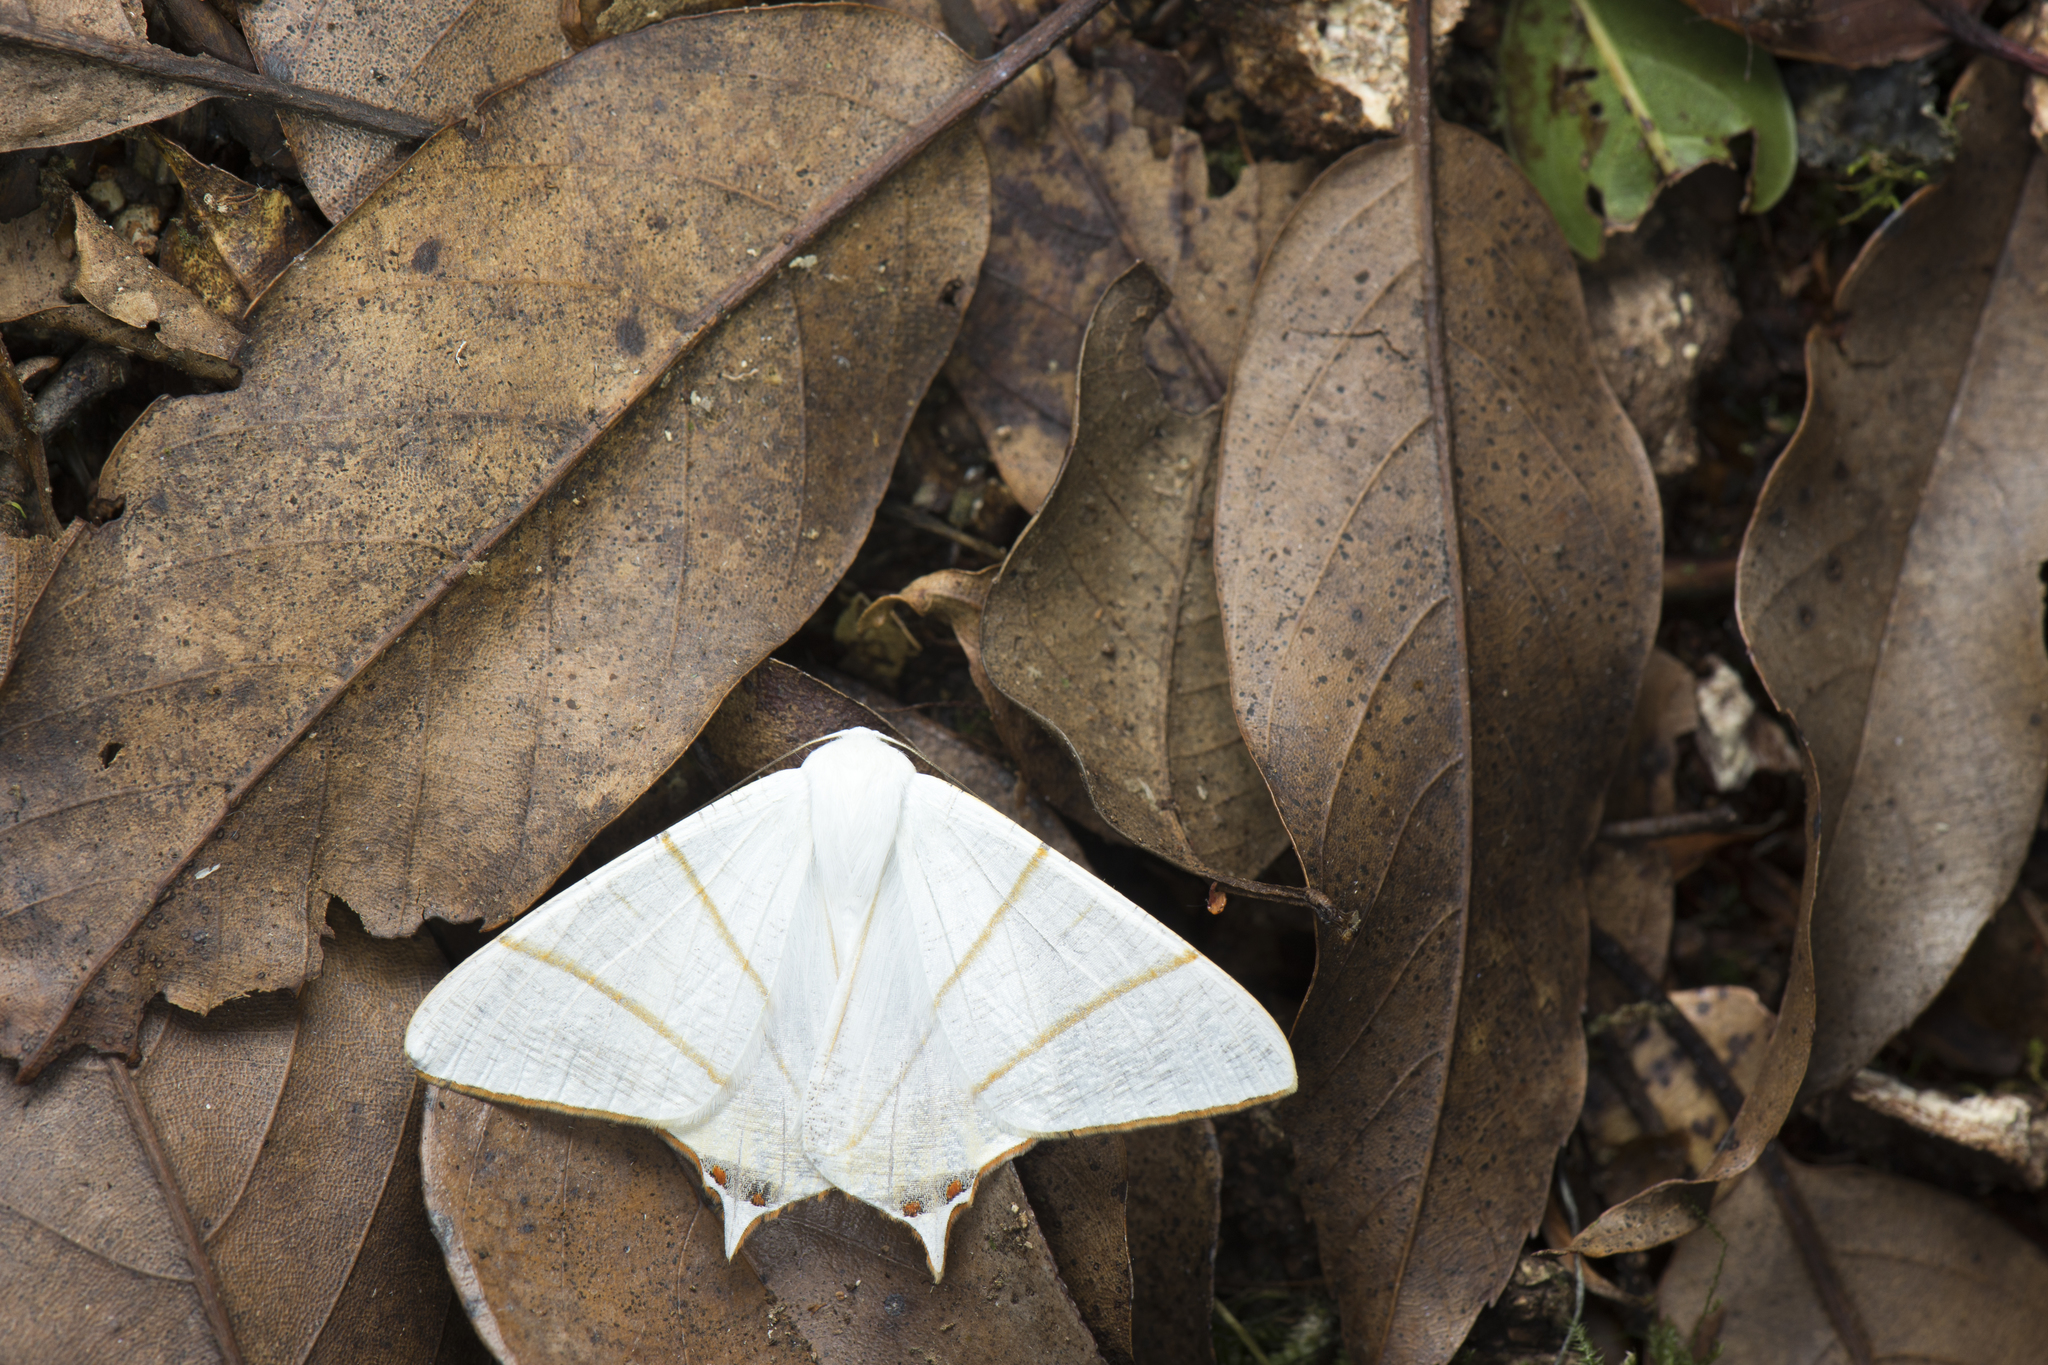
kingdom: Animalia
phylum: Arthropoda
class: Insecta
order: Lepidoptera
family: Geometridae
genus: Ourapteryx
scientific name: Ourapteryx changi
